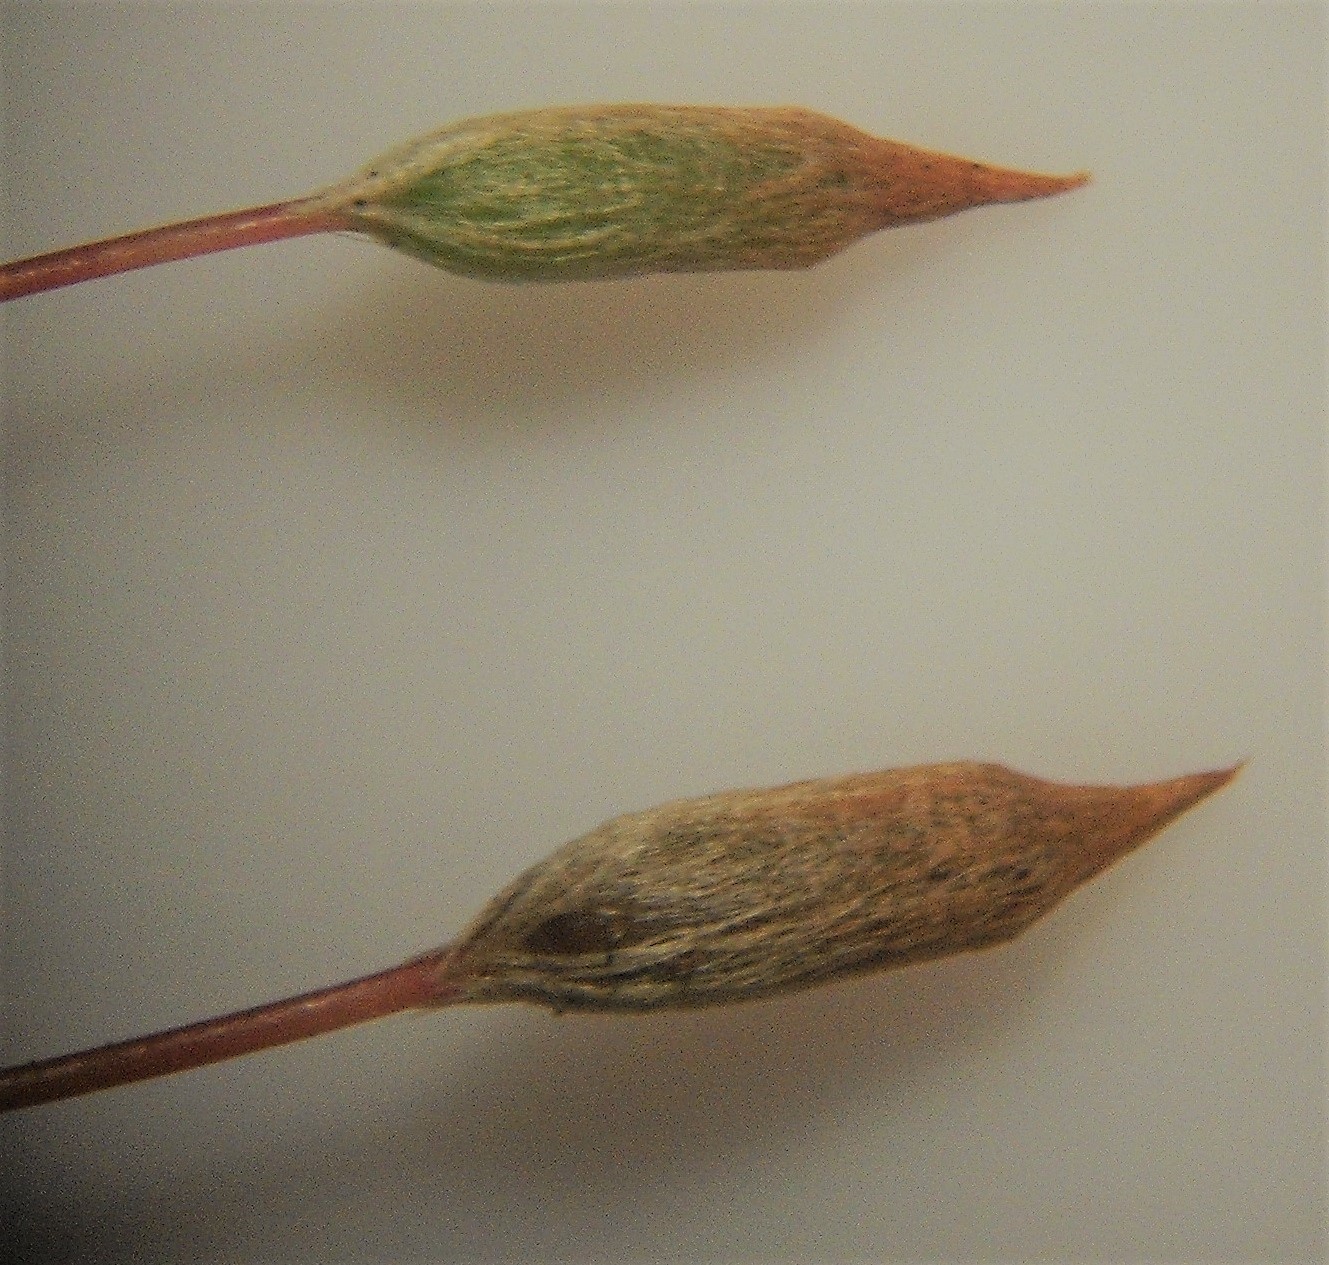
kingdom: Plantae
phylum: Bryophyta
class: Polytrichopsida
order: Polytrichales
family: Polytrichaceae
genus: Pogonatum
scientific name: Pogonatum subulatum
